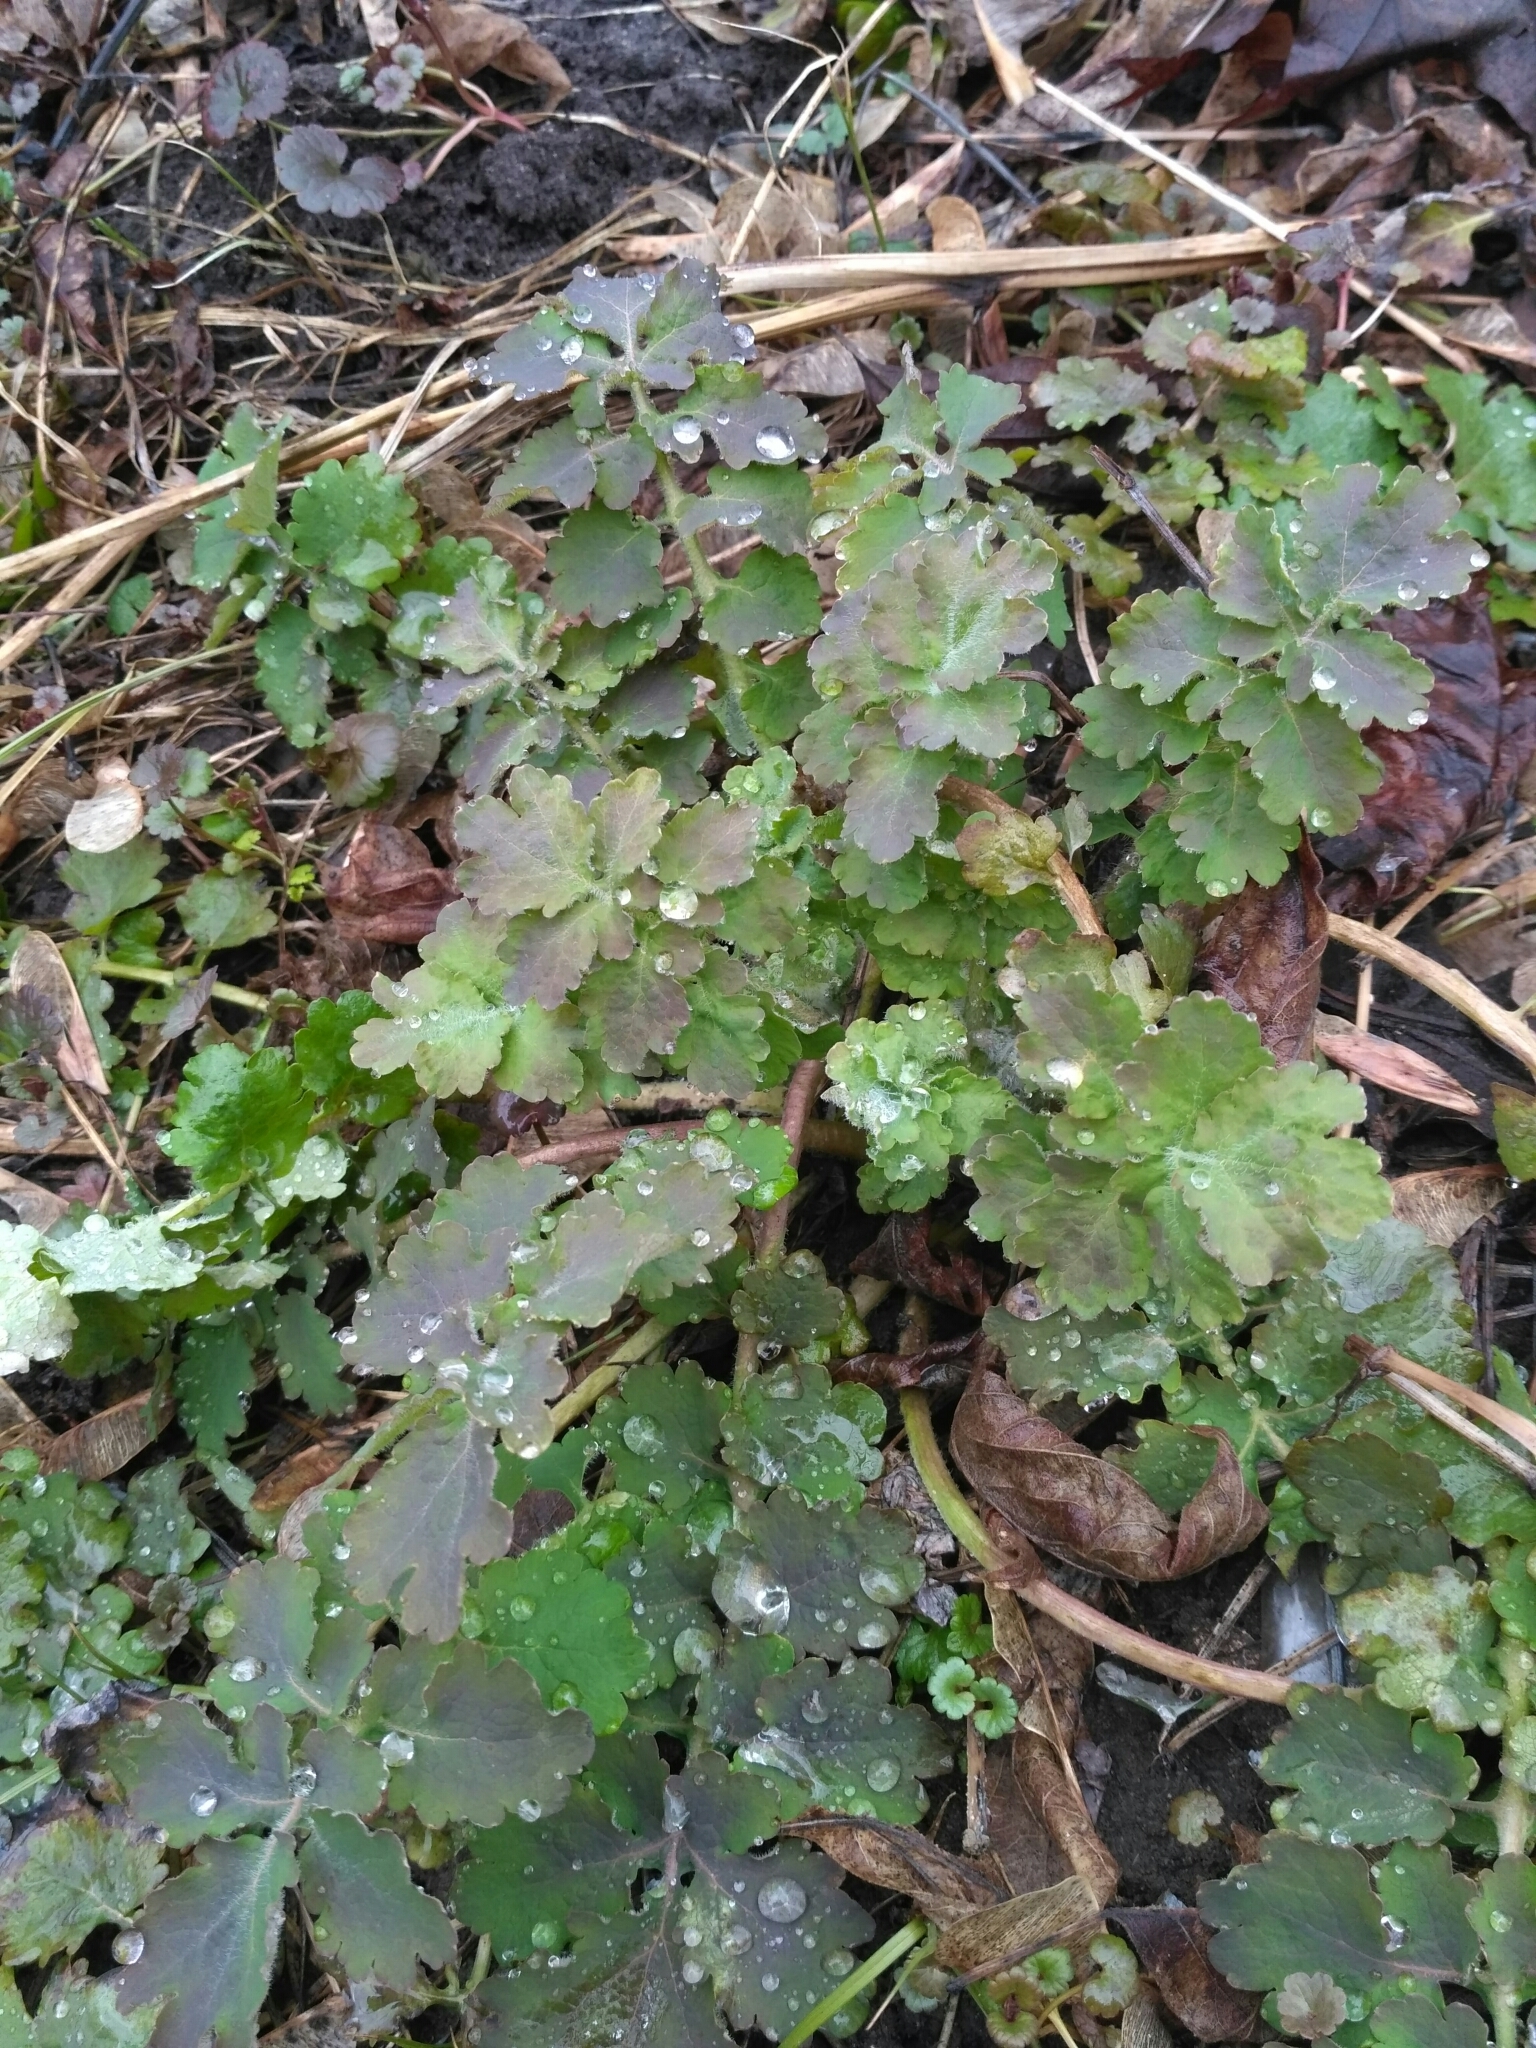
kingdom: Plantae
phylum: Tracheophyta
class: Magnoliopsida
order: Ranunculales
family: Papaveraceae
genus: Chelidonium
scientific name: Chelidonium majus
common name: Greater celandine
